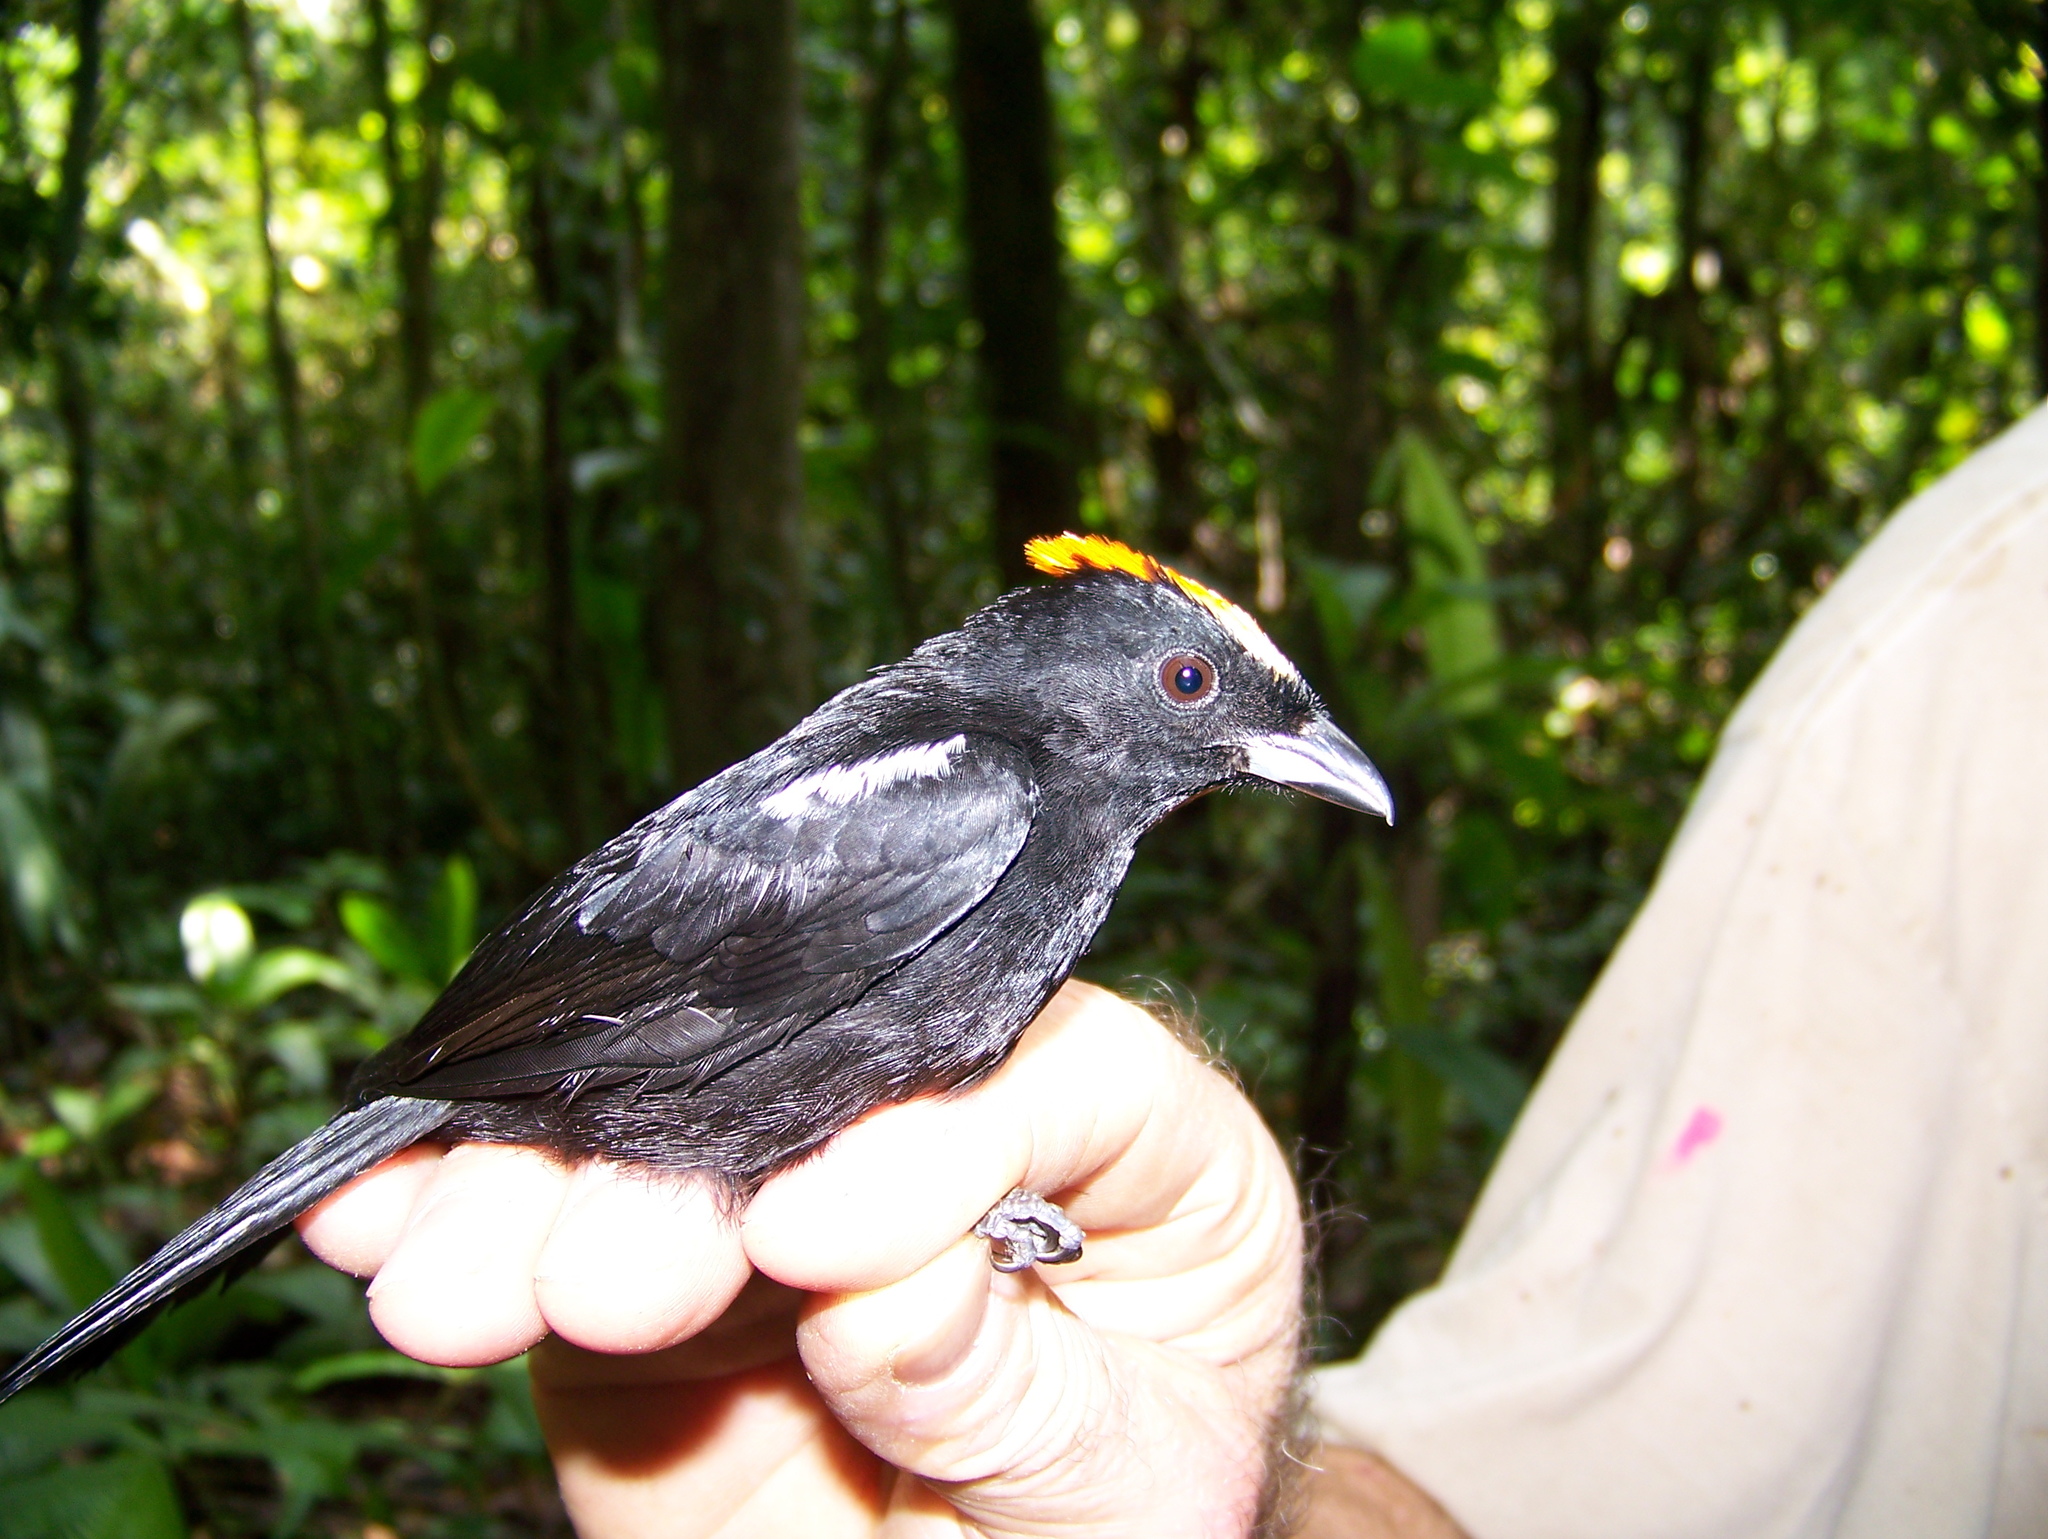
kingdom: Animalia
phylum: Chordata
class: Aves
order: Passeriformes
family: Thraupidae
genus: Loriotus
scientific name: Loriotus cristatus
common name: Flame-crested tanager
